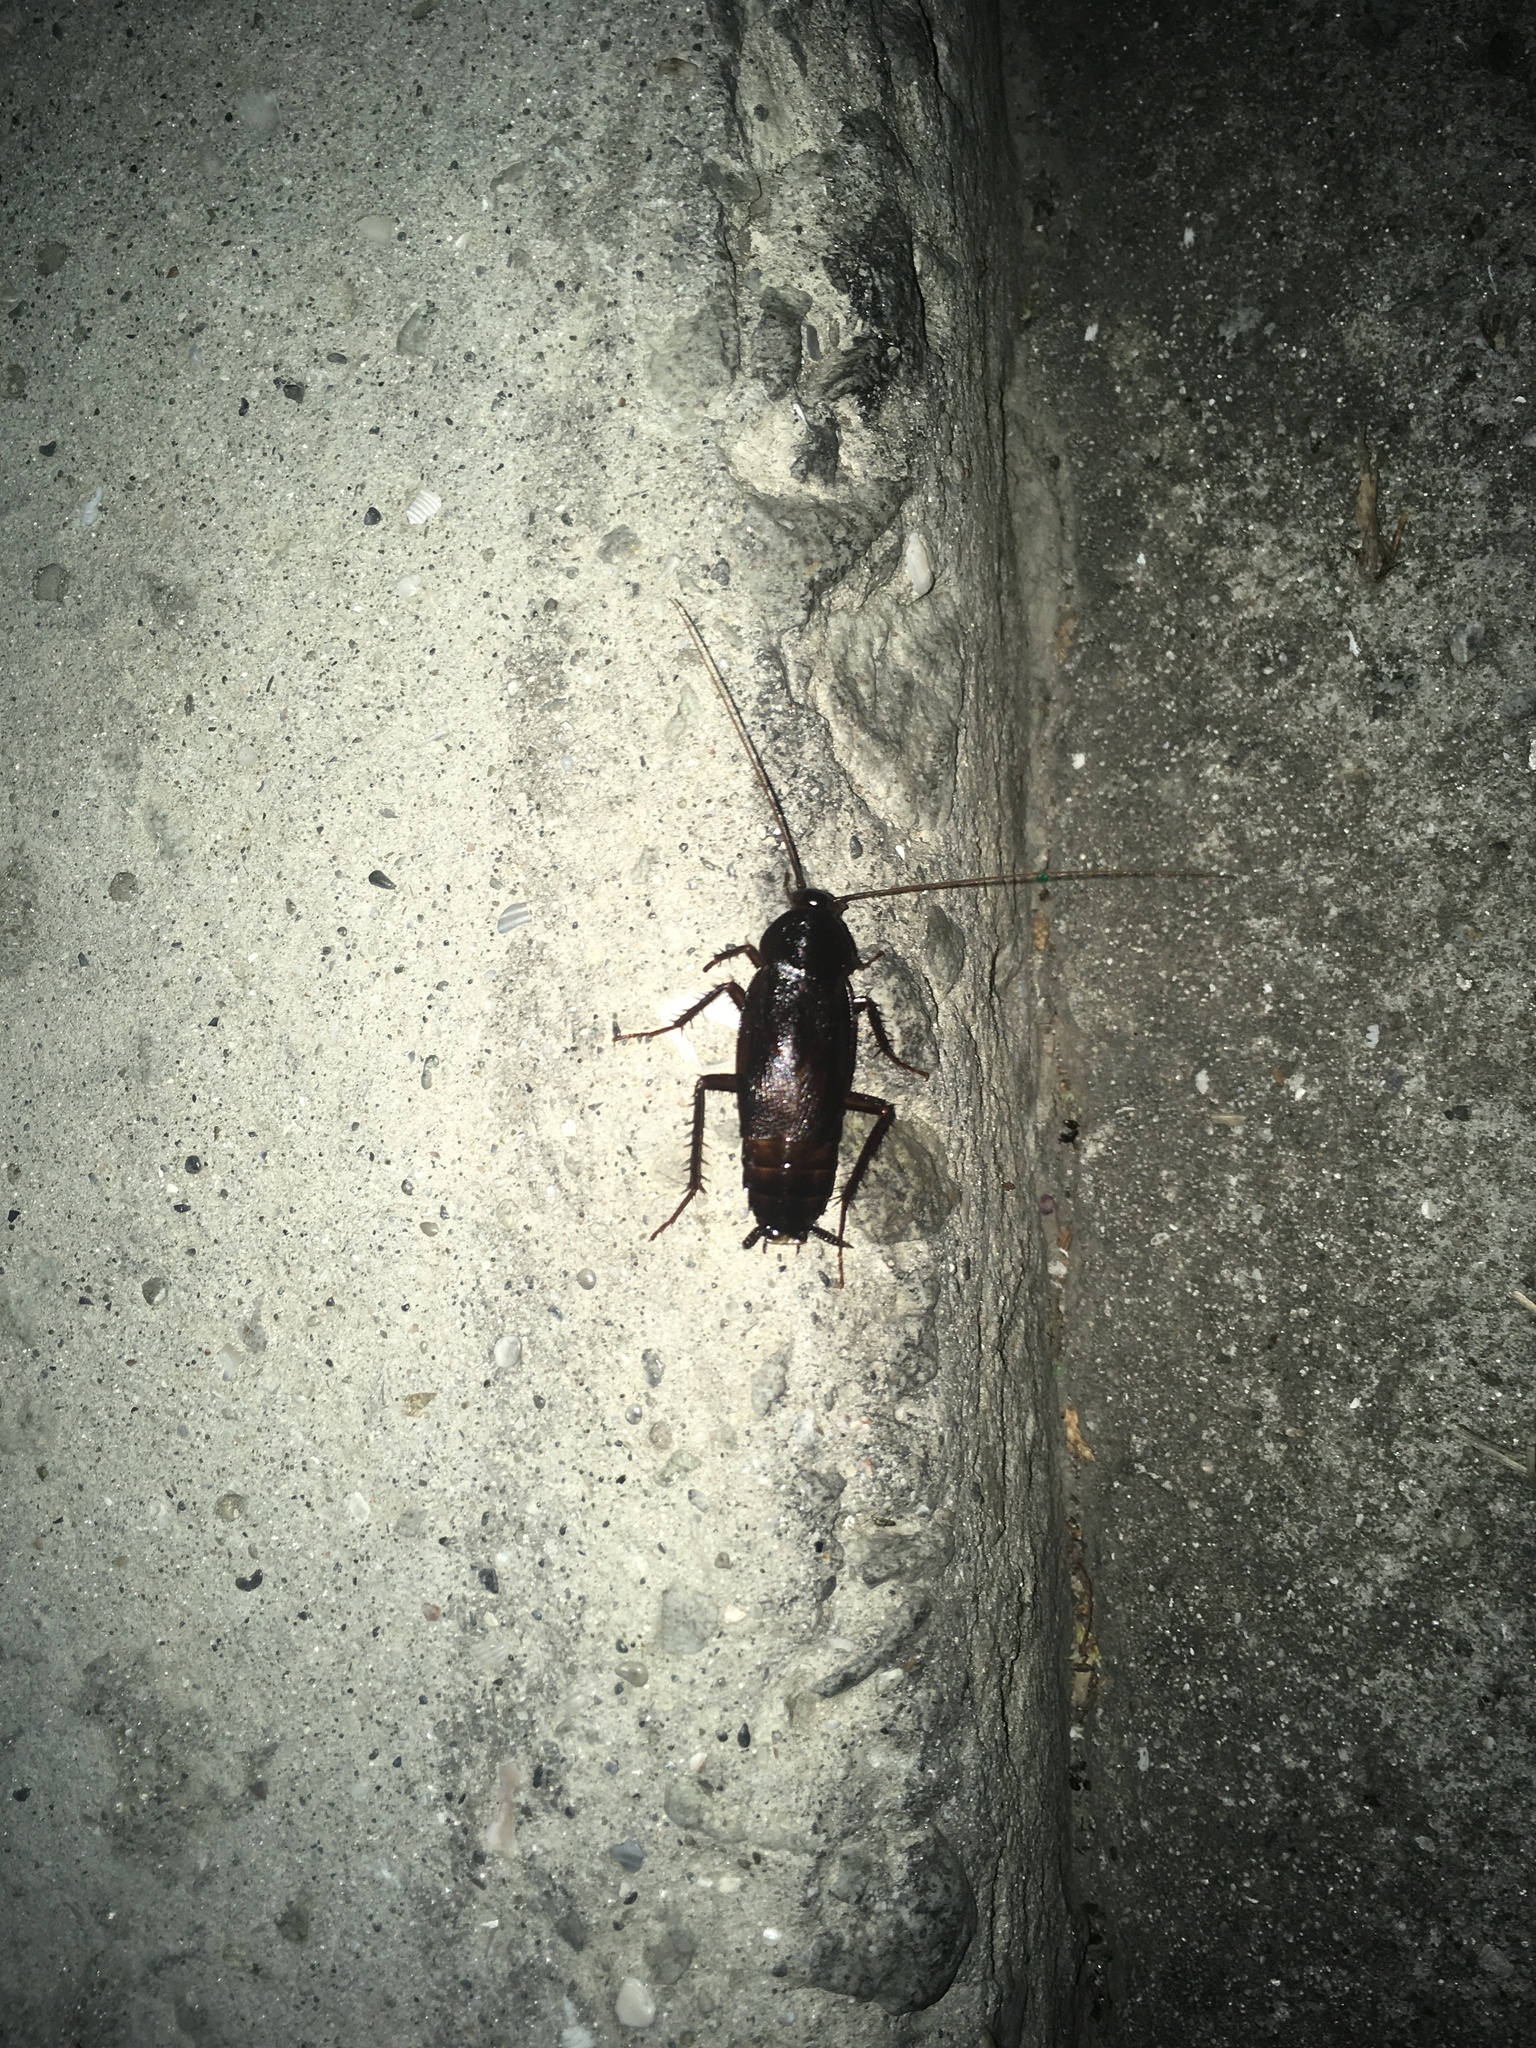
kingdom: Animalia
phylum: Arthropoda
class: Insecta
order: Blattodea
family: Blattidae
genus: Blatta
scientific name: Blatta orientalis
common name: Oriental cockroach
